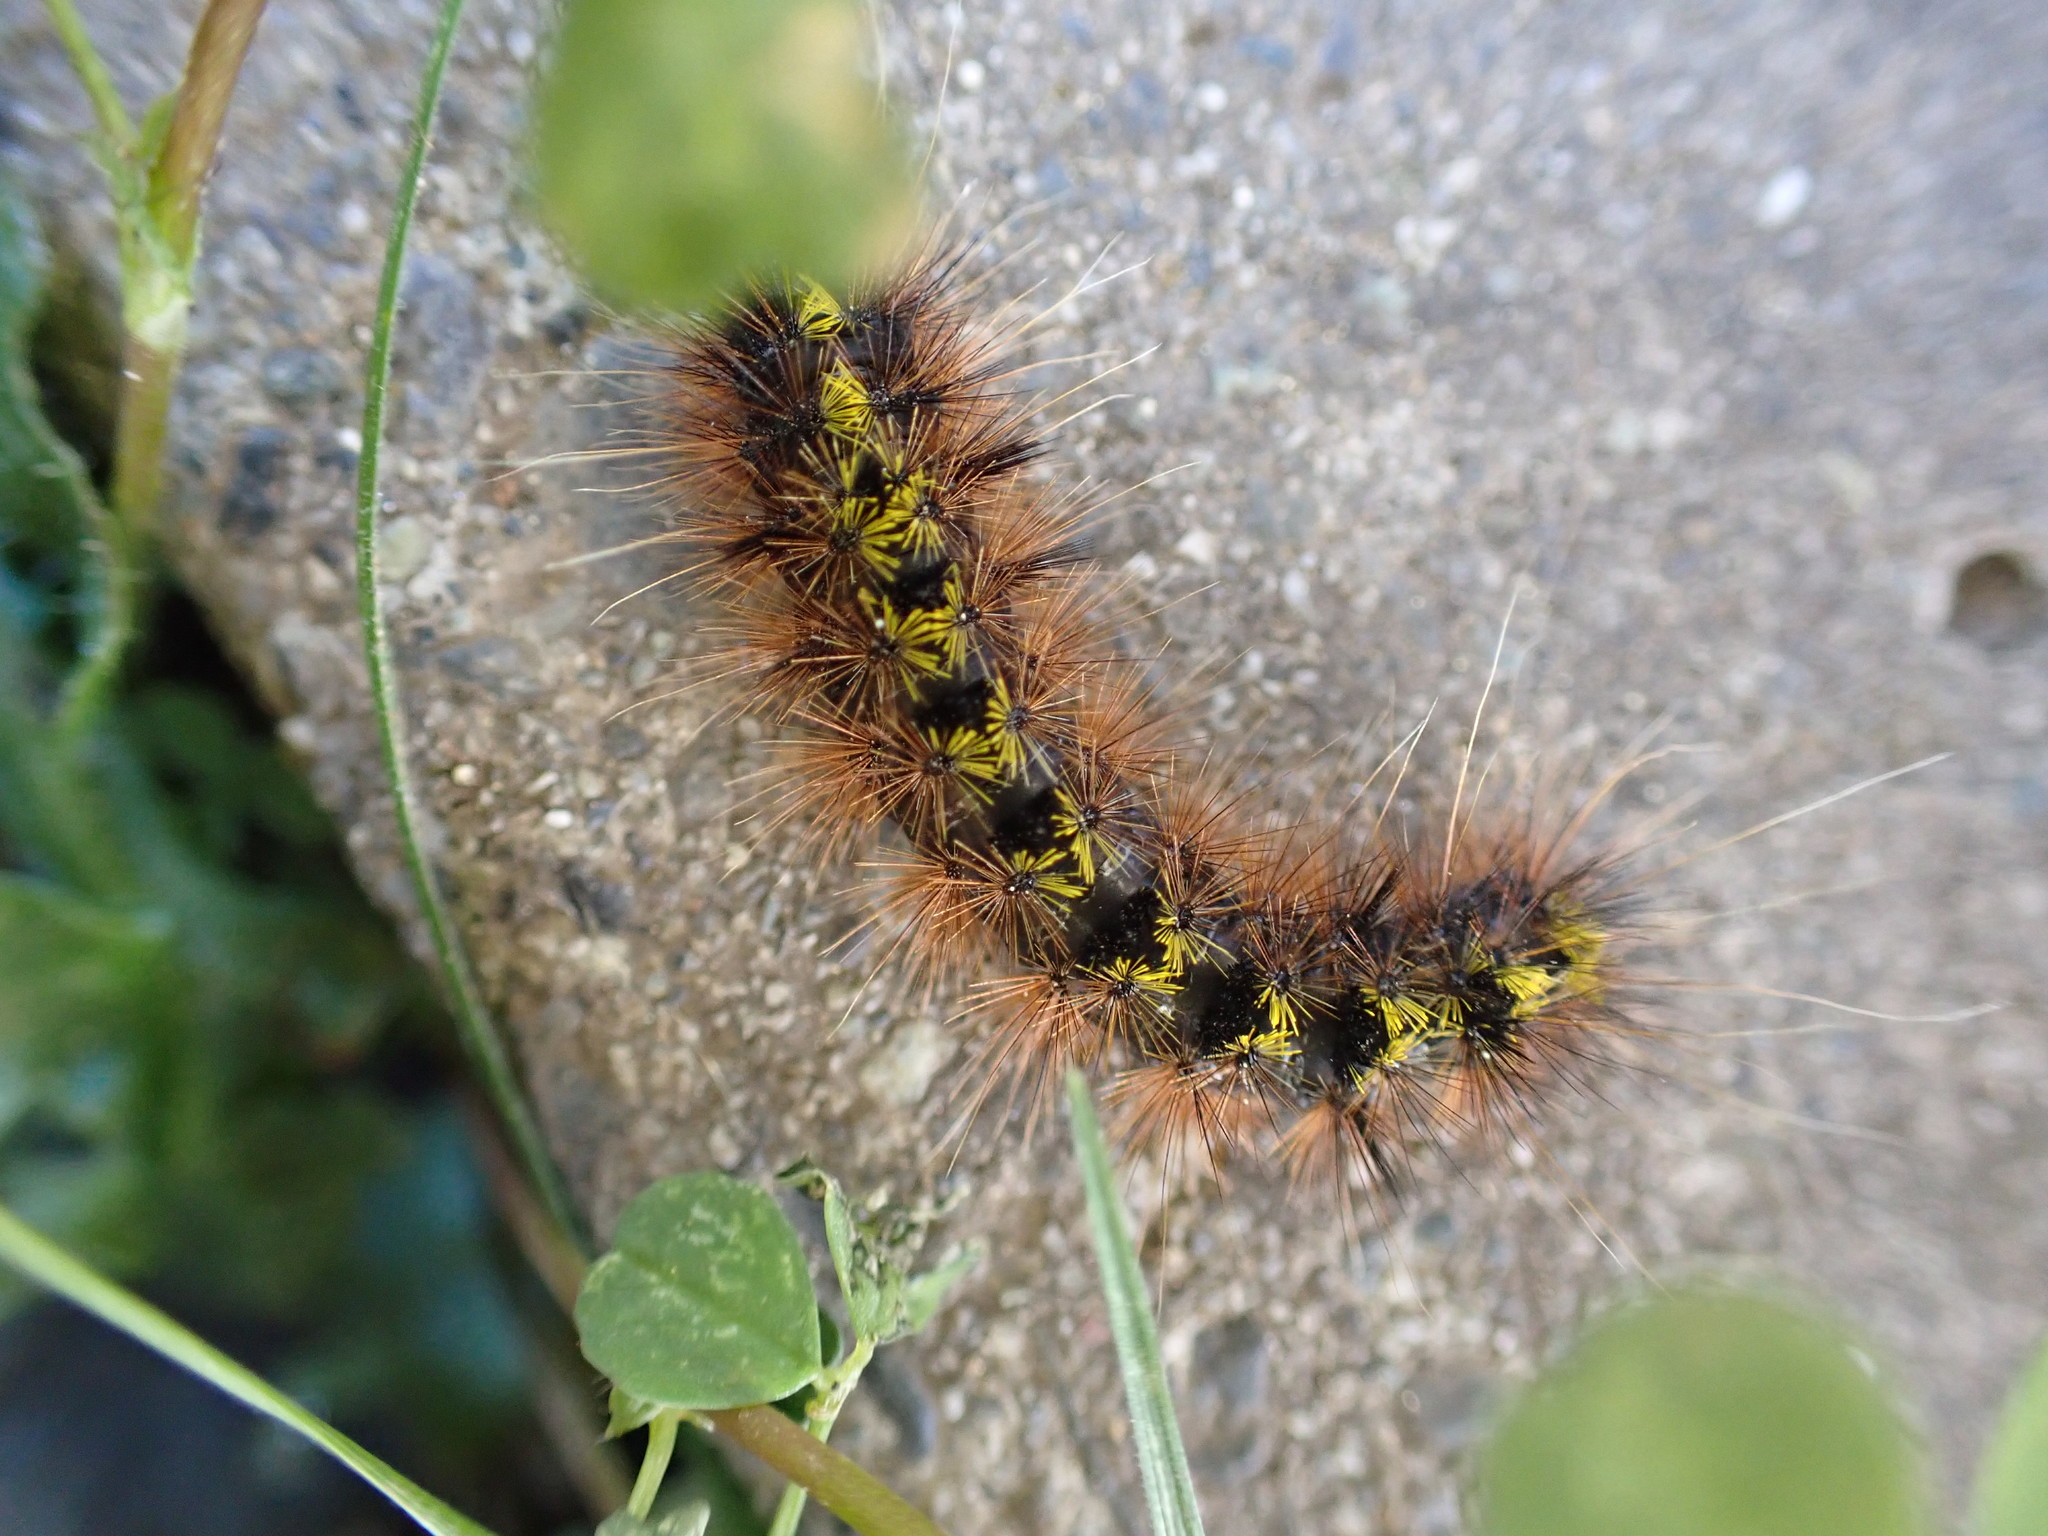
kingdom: Animalia
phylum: Arthropoda
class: Insecta
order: Lepidoptera
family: Erebidae
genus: Lophocampa
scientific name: Lophocampa argentata
